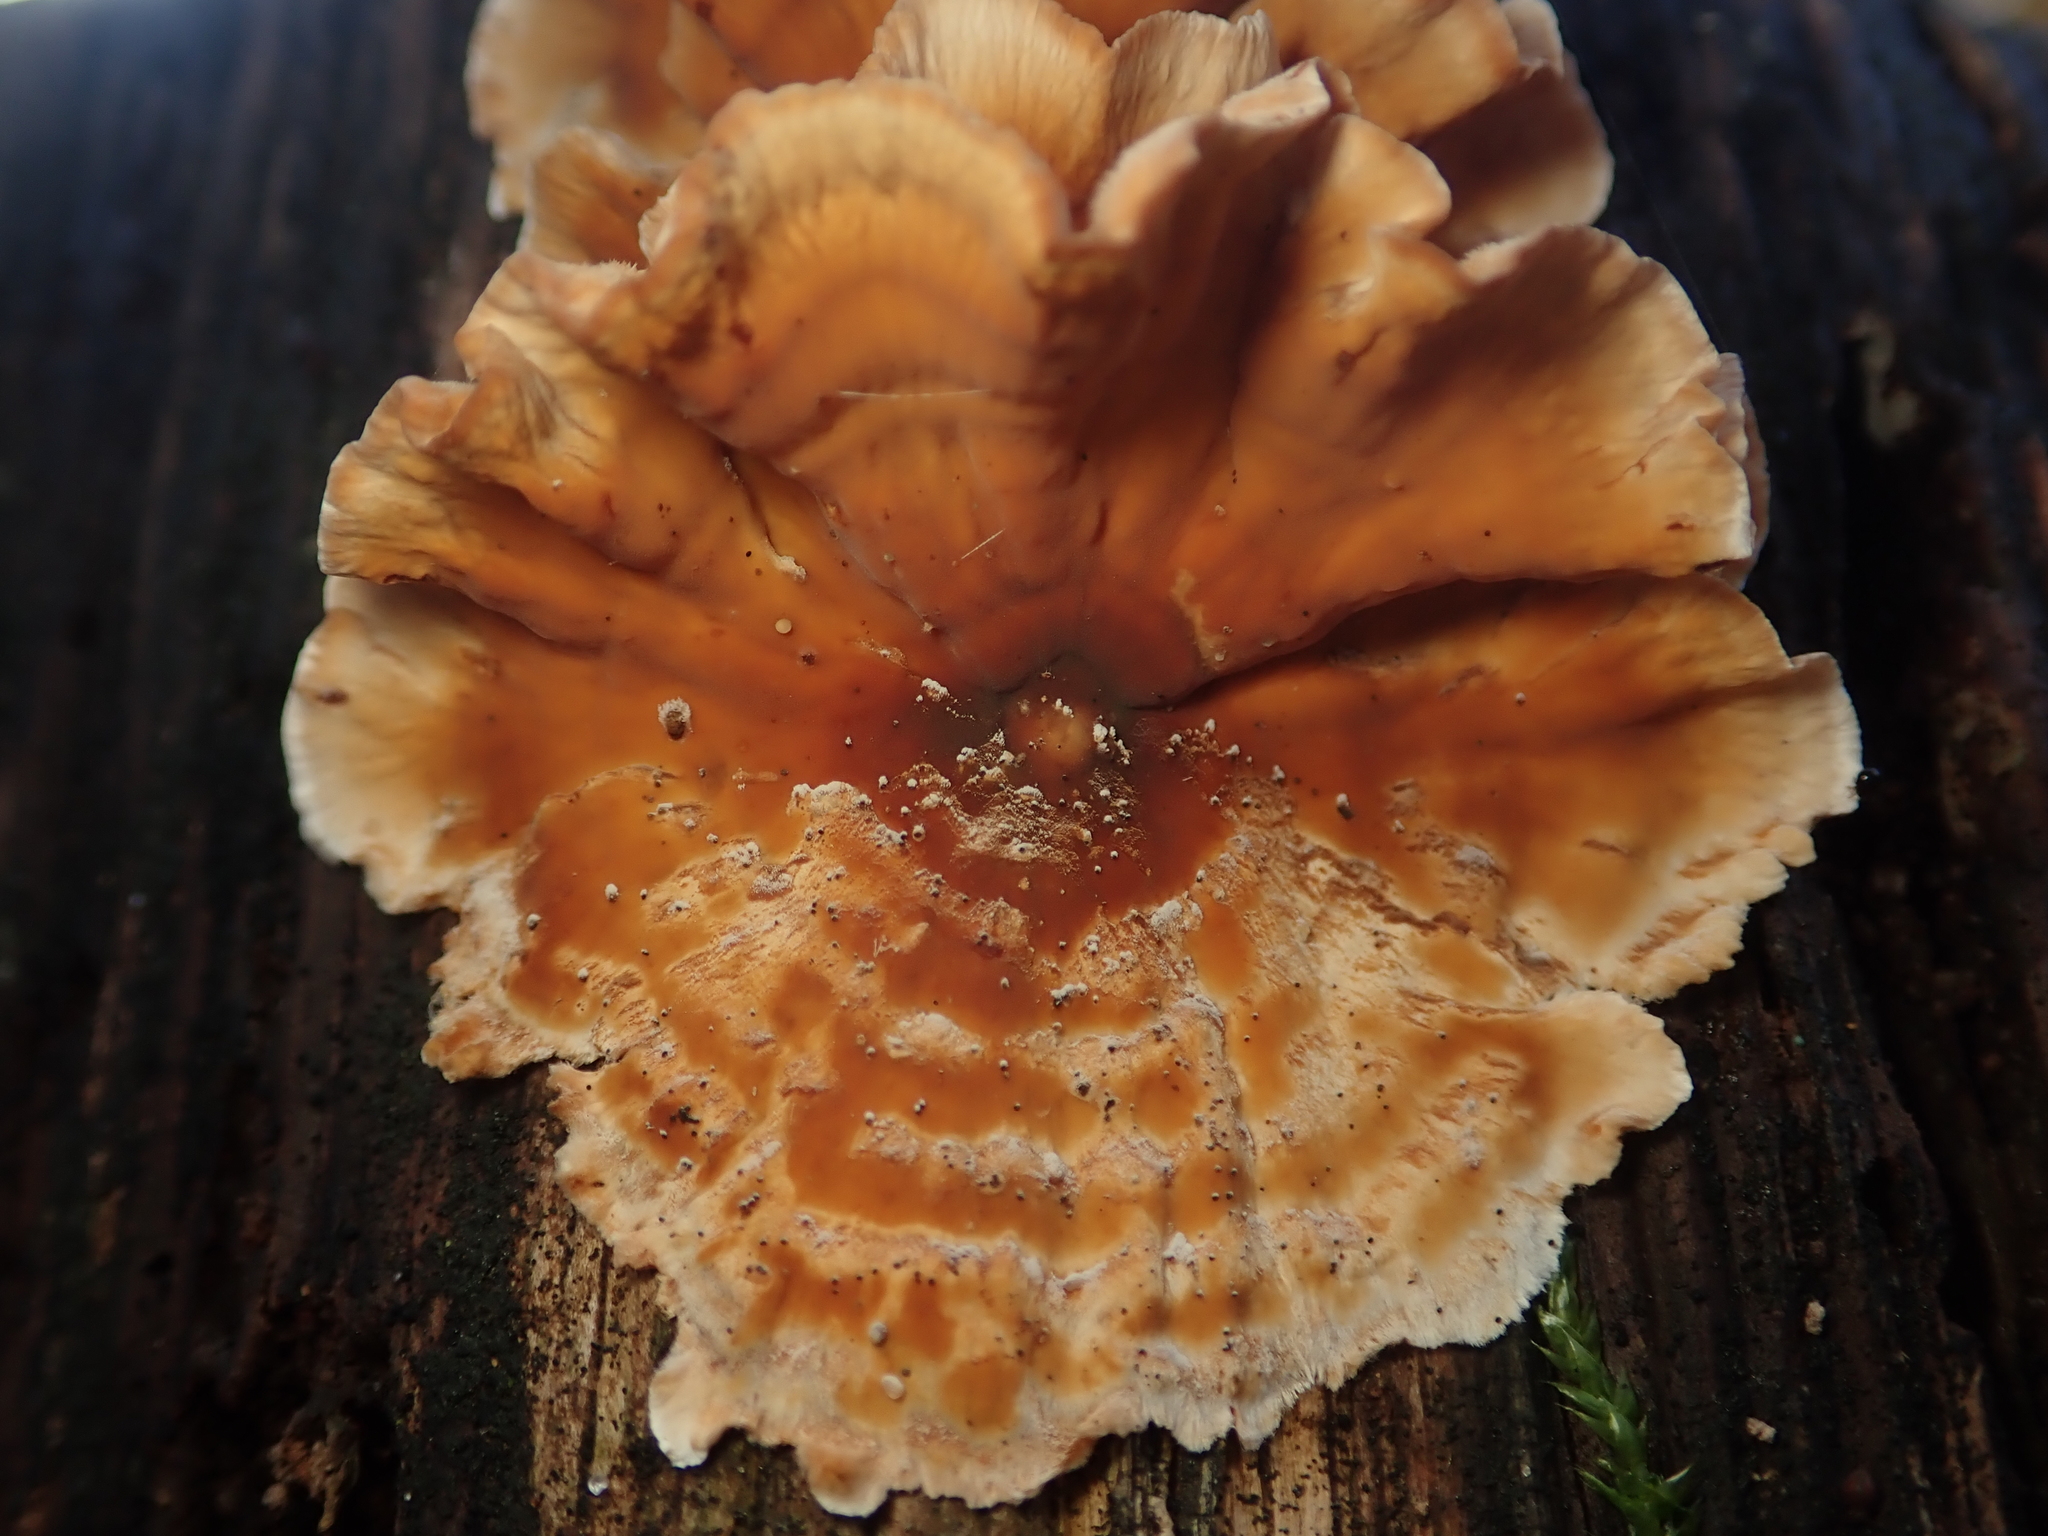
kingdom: Fungi
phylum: Basidiomycota
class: Agaricomycetes
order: Russulales
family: Stereaceae
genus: Stereum
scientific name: Stereum hirsutum
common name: Hairy curtain crust
